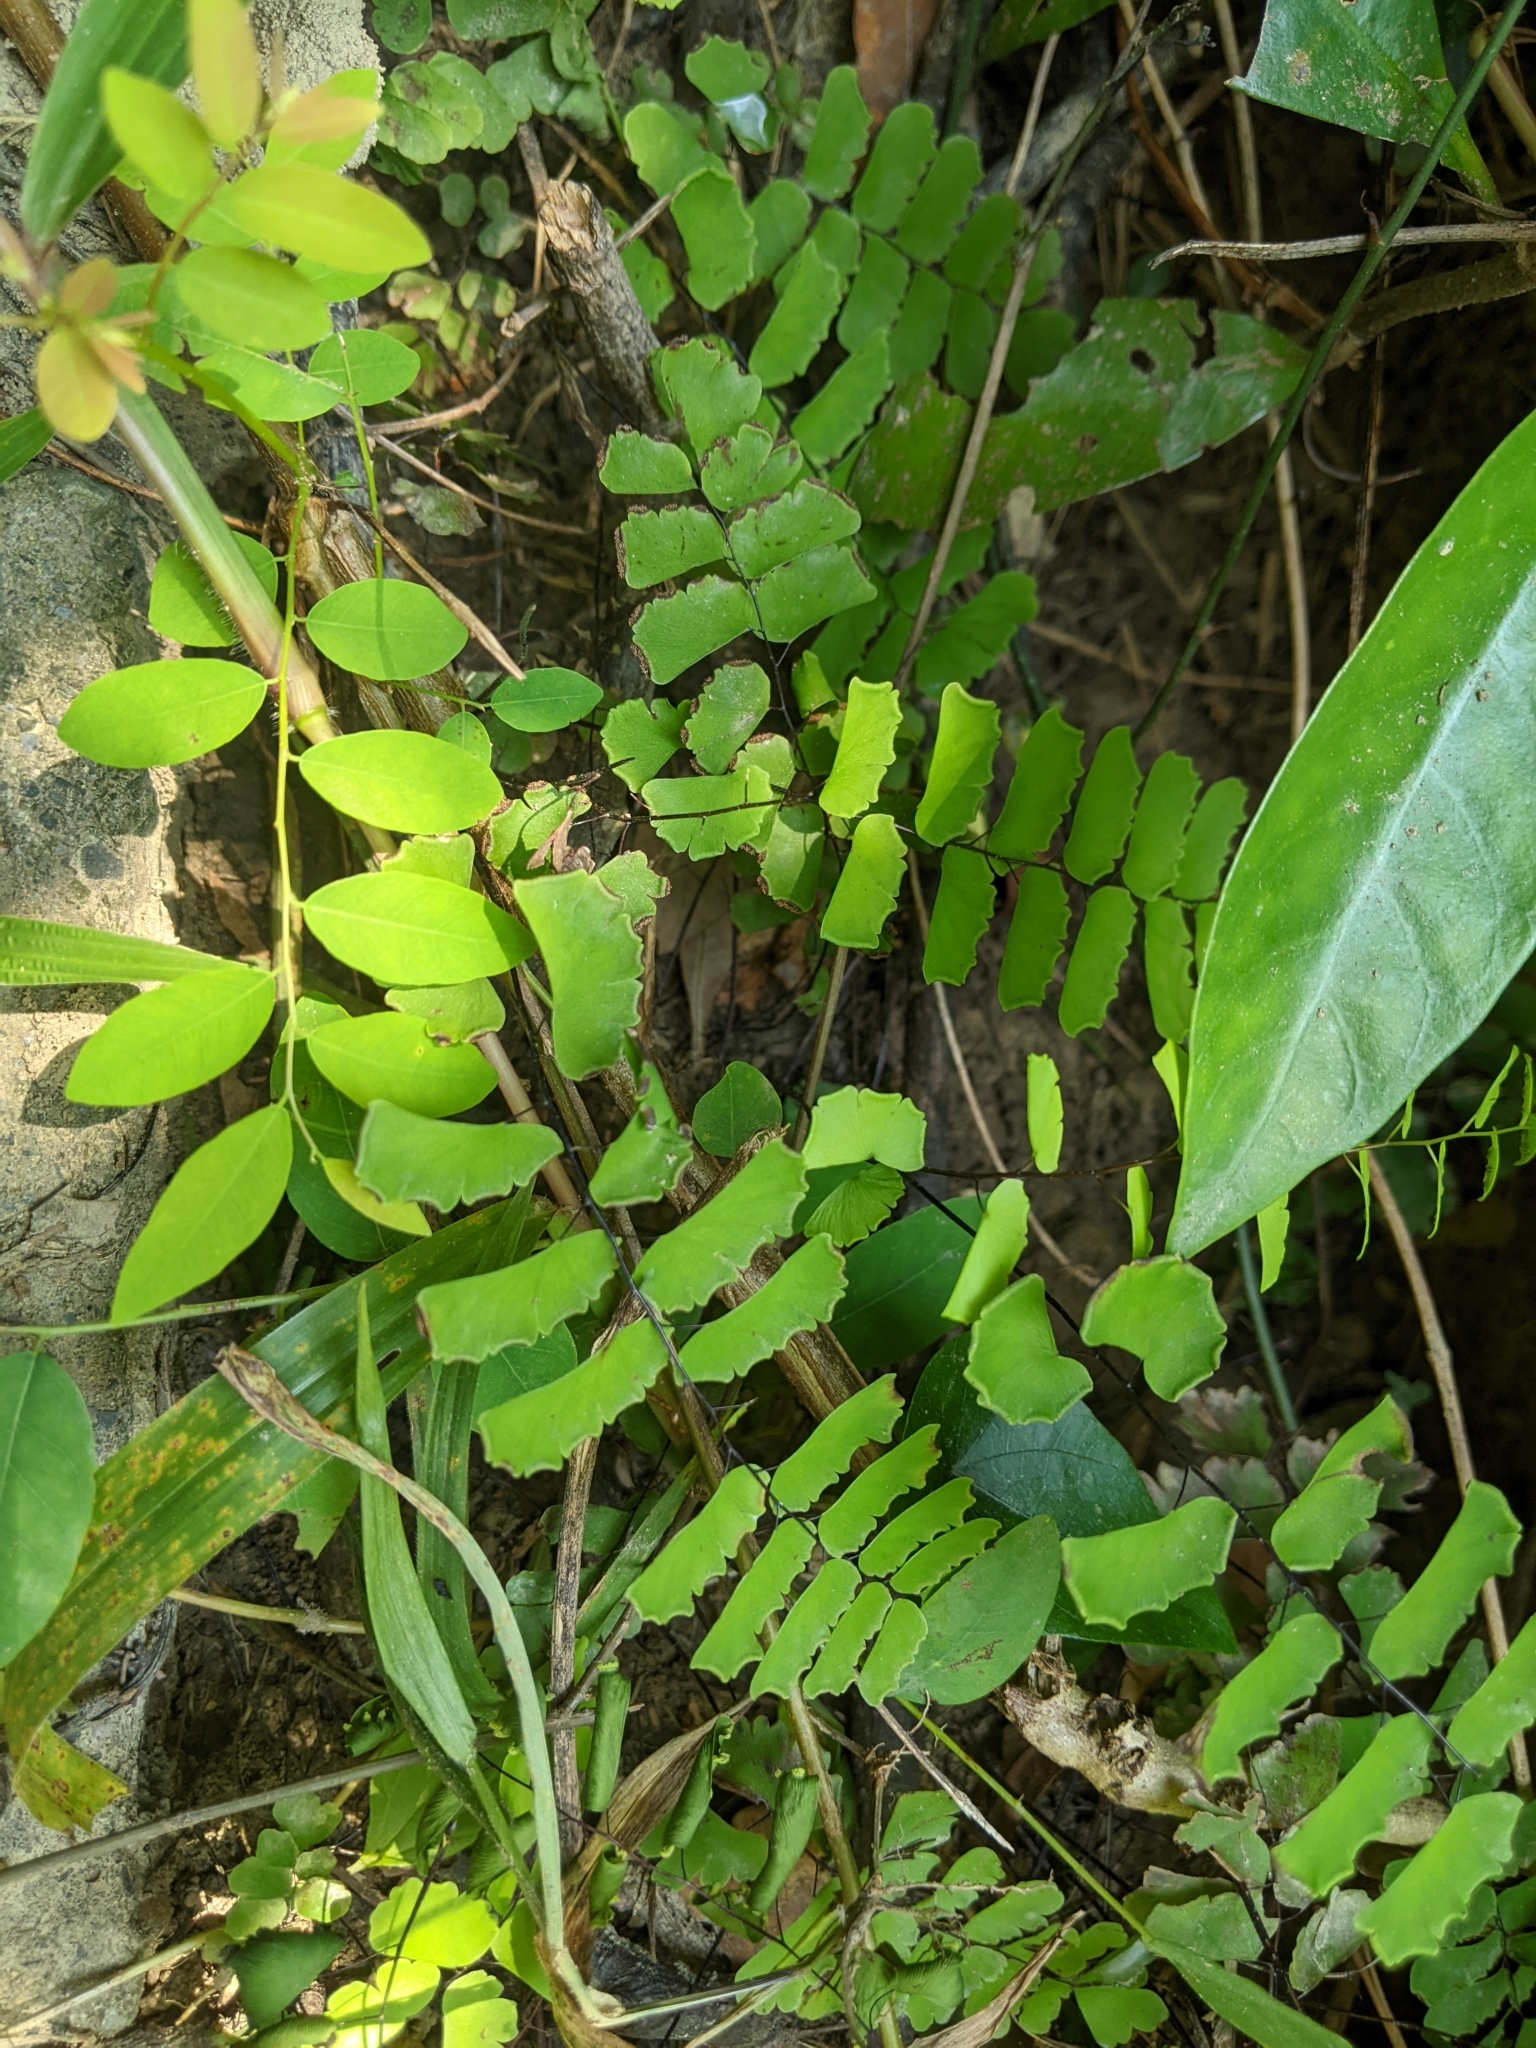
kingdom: Plantae
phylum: Tracheophyta
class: Polypodiopsida
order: Polypodiales
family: Pteridaceae
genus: Adiantum
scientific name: Adiantum philippense
